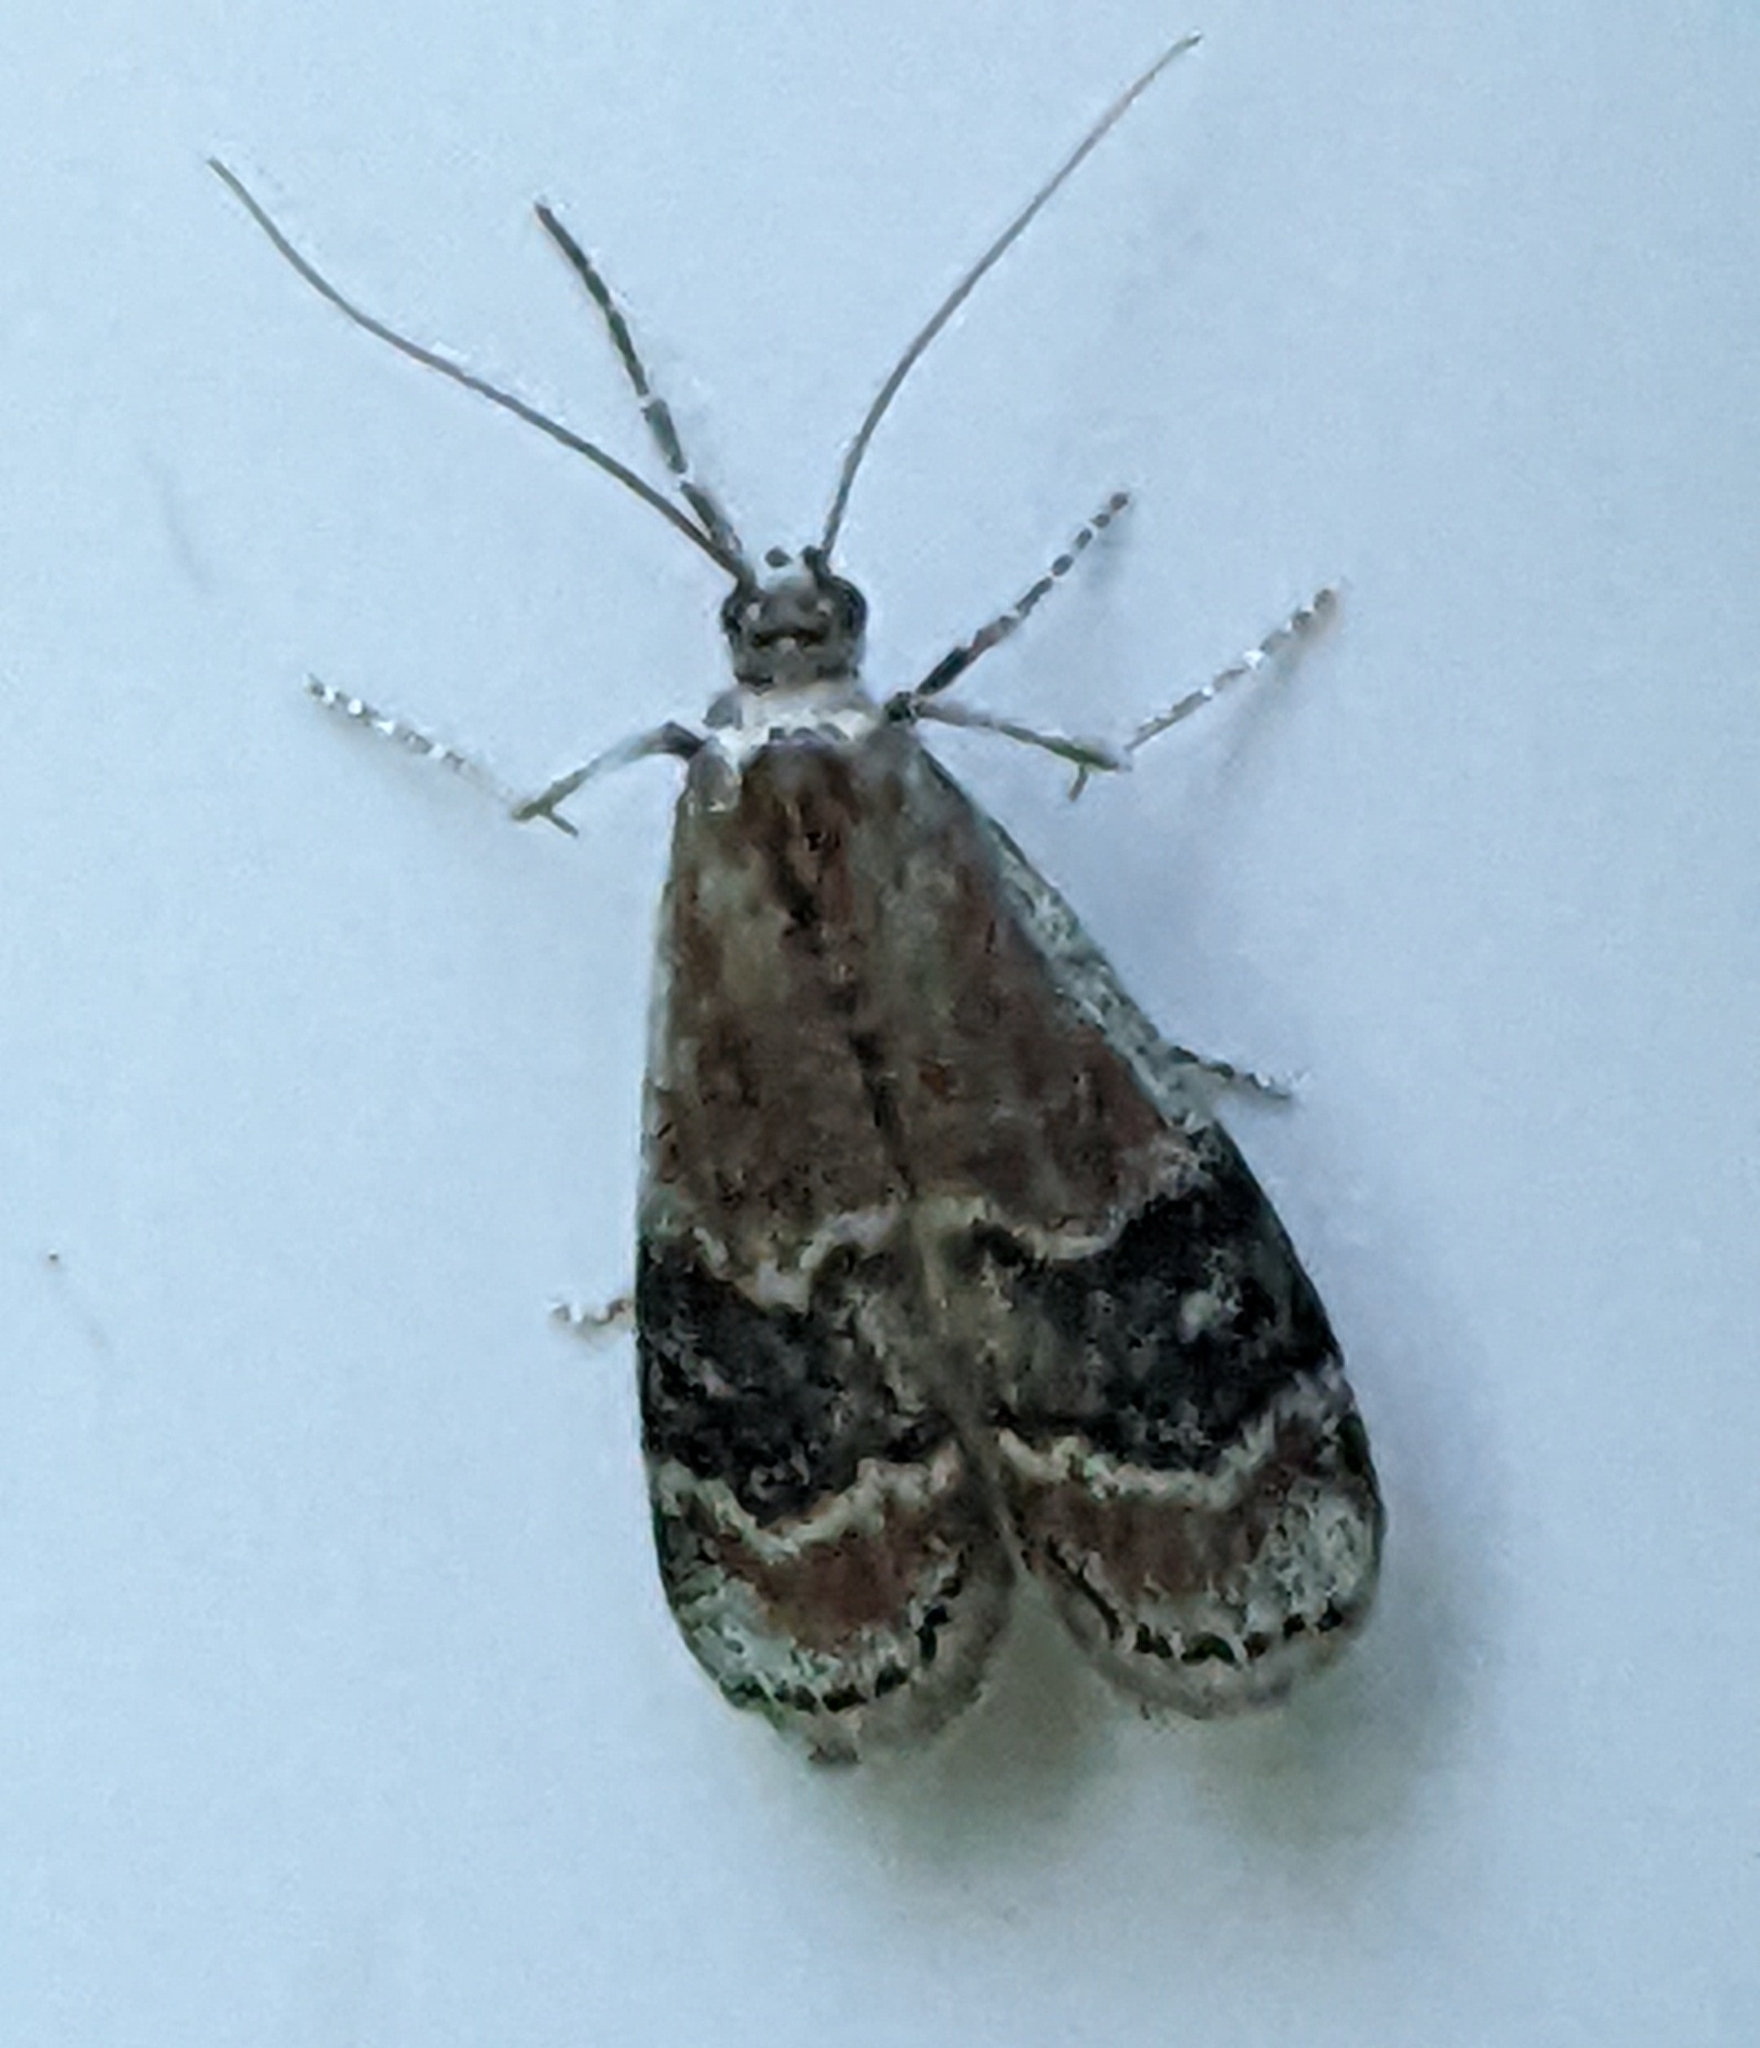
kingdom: Animalia
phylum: Arthropoda
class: Insecta
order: Lepidoptera
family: Pyralidae
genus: Euzophera
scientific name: Euzophera semifuneralis
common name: American plum borer moth
